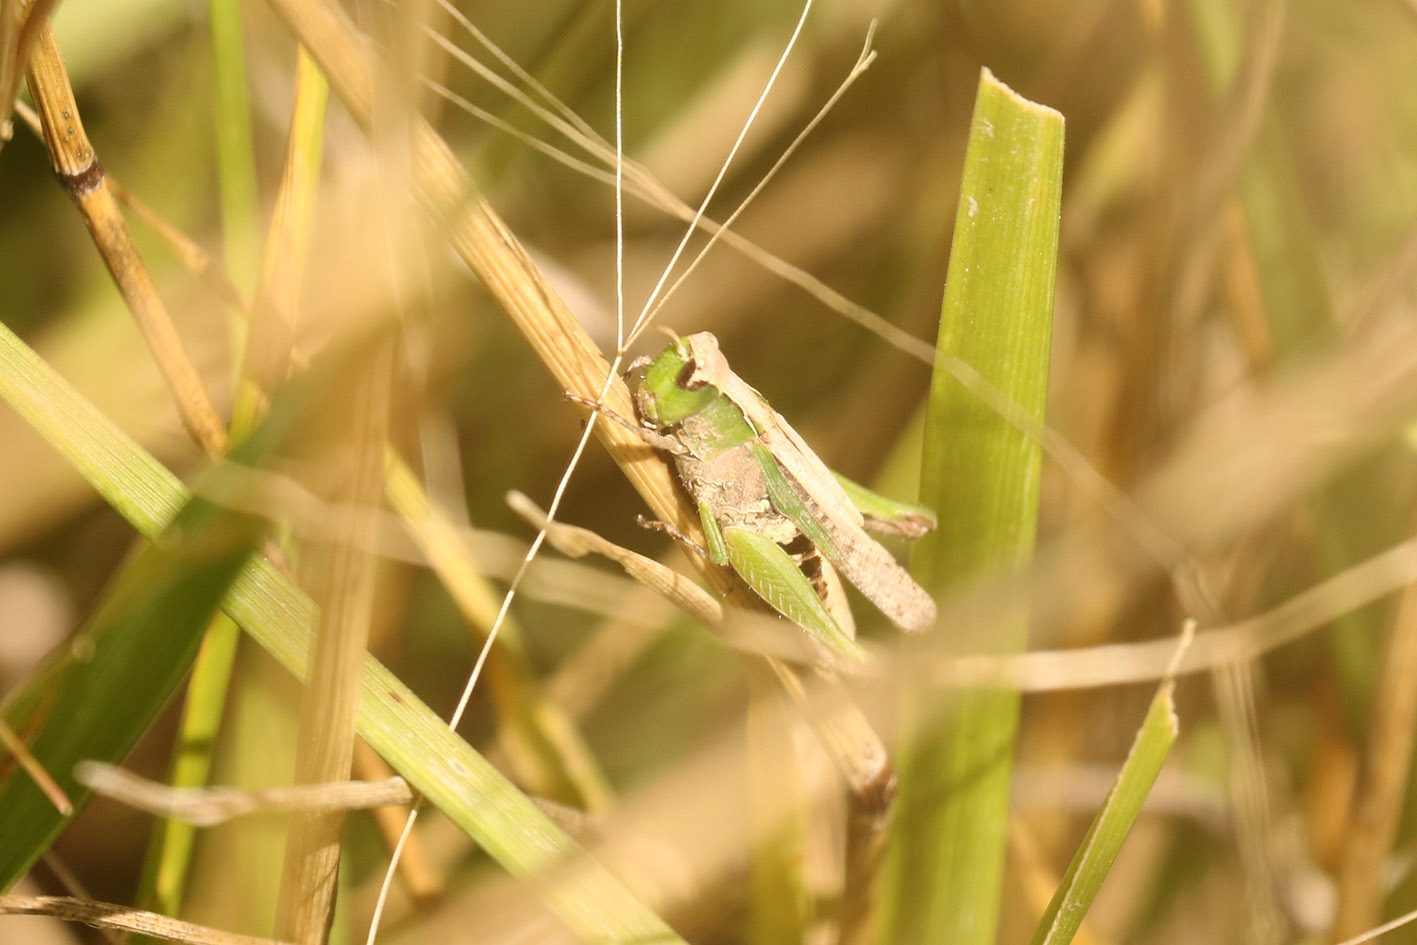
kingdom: Animalia
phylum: Arthropoda
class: Insecta
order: Orthoptera
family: Acrididae
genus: Orphulella
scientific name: Orphulella punctata
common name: Slant-faced grasshopper
